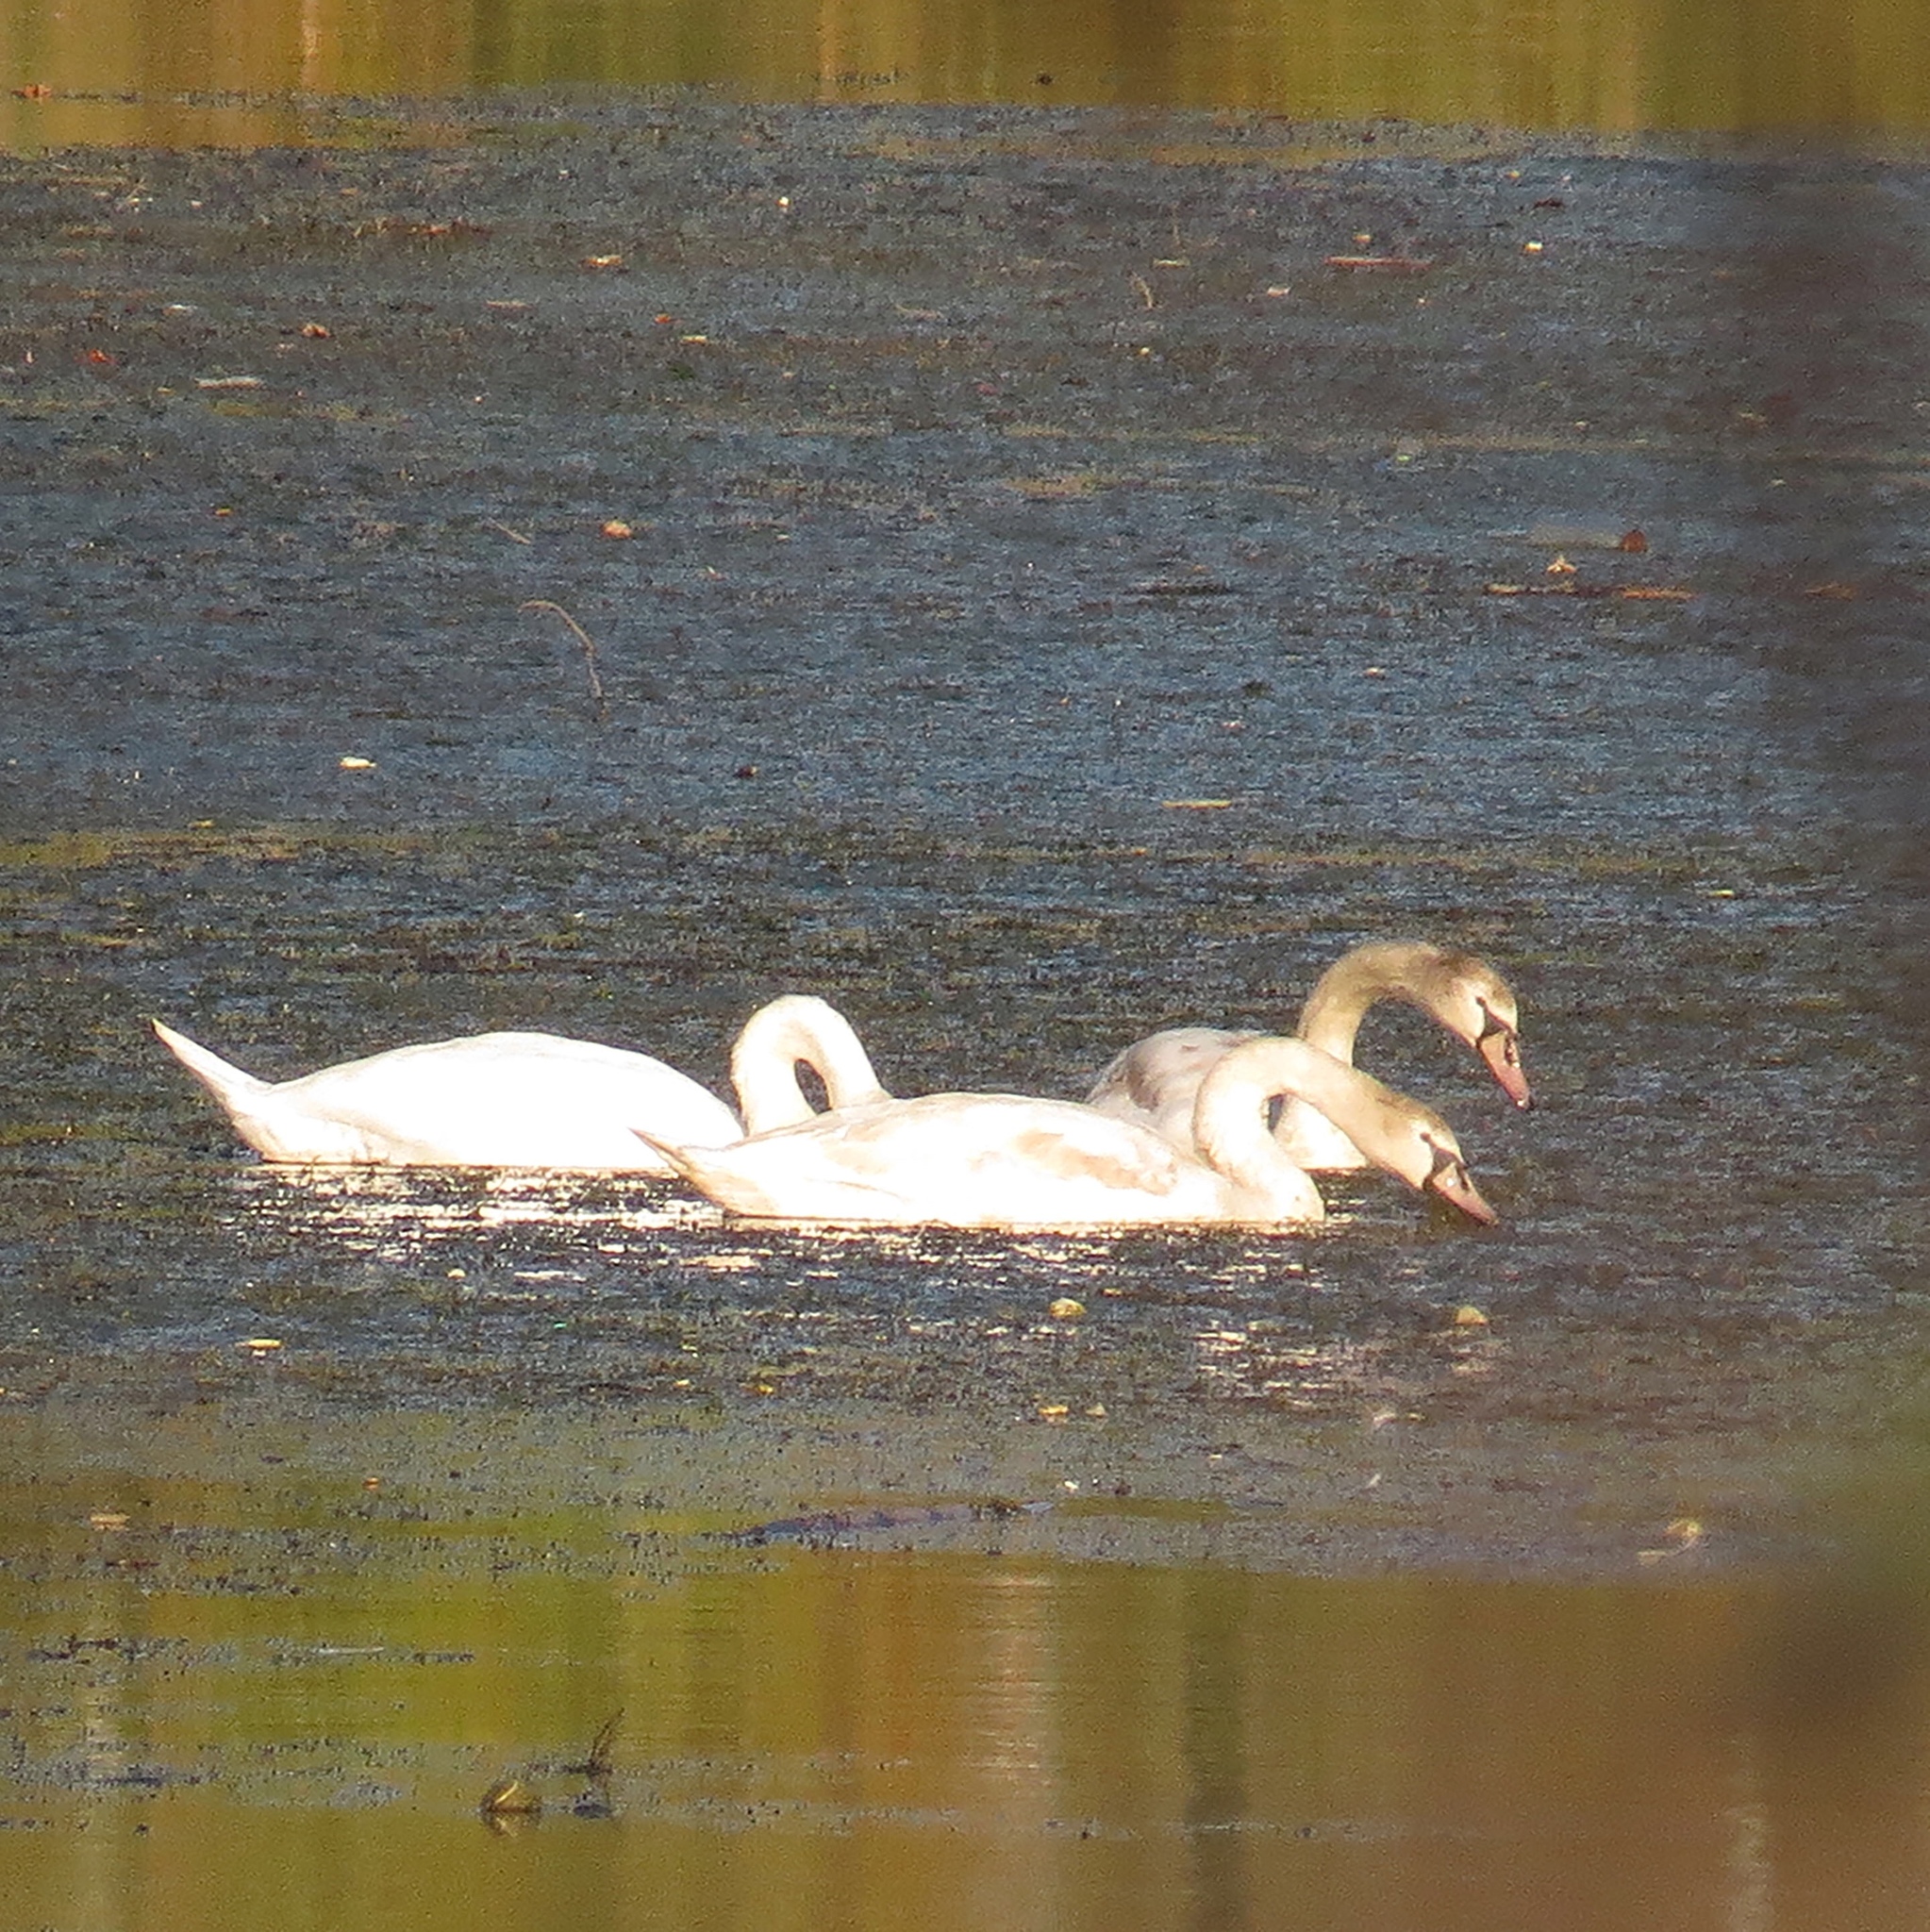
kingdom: Animalia
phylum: Chordata
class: Aves
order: Anseriformes
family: Anatidae
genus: Cygnus
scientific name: Cygnus olor
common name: Mute swan
